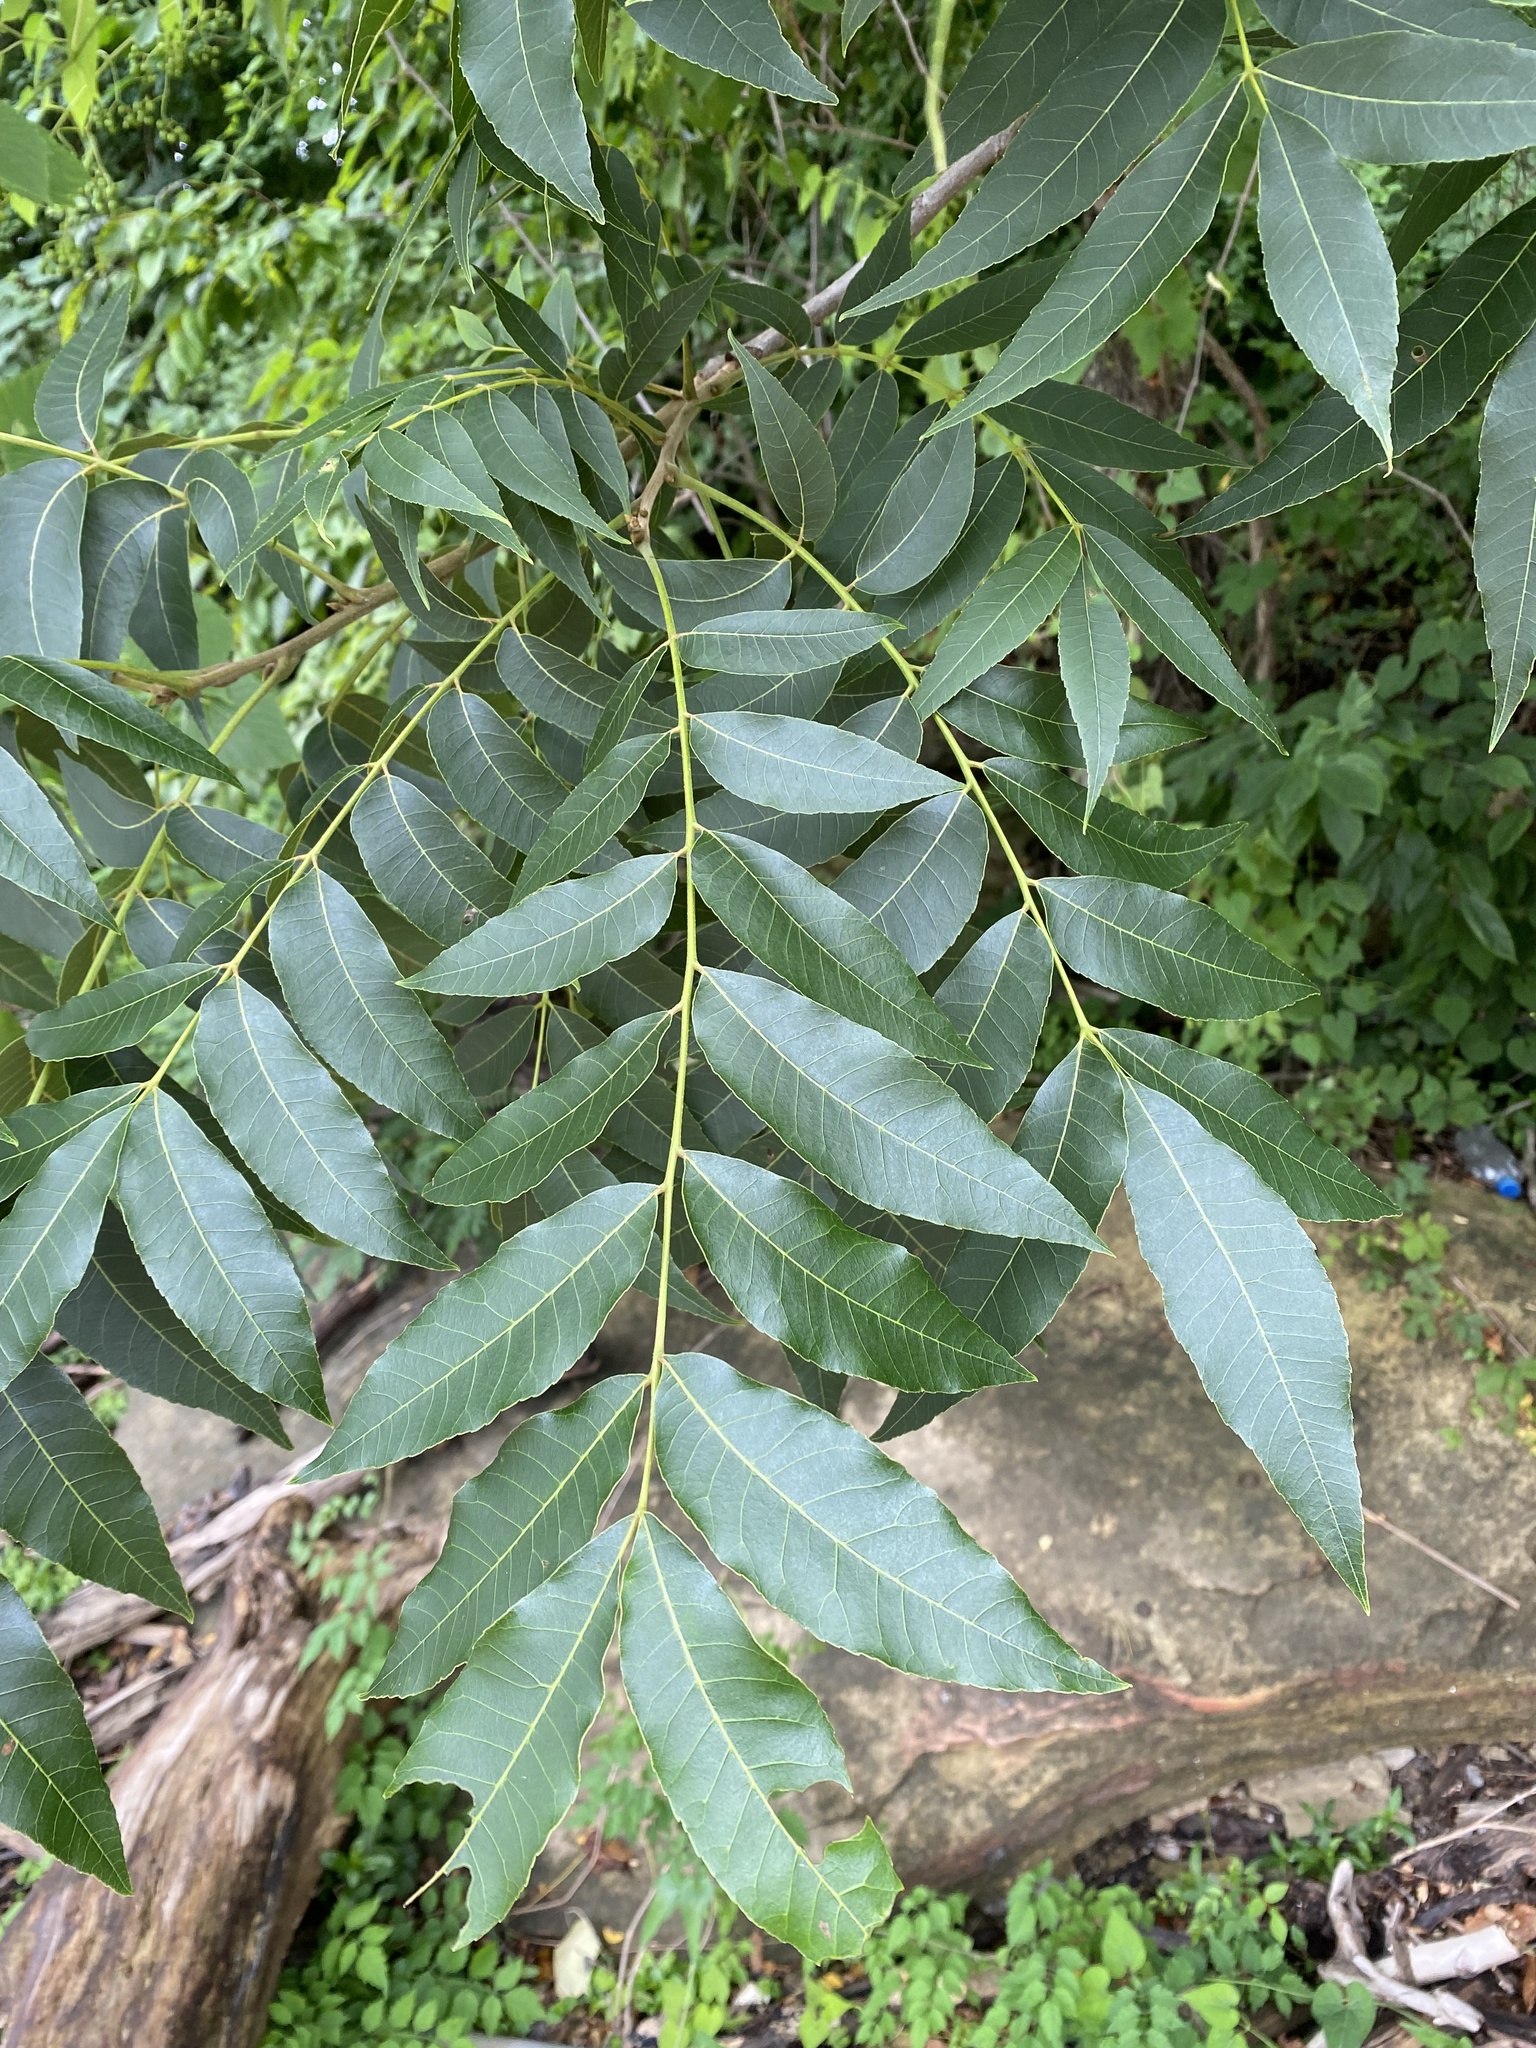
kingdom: Plantae
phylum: Tracheophyta
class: Magnoliopsida
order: Fagales
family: Juglandaceae
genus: Carya
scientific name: Carya illinoinensis
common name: Pecan
